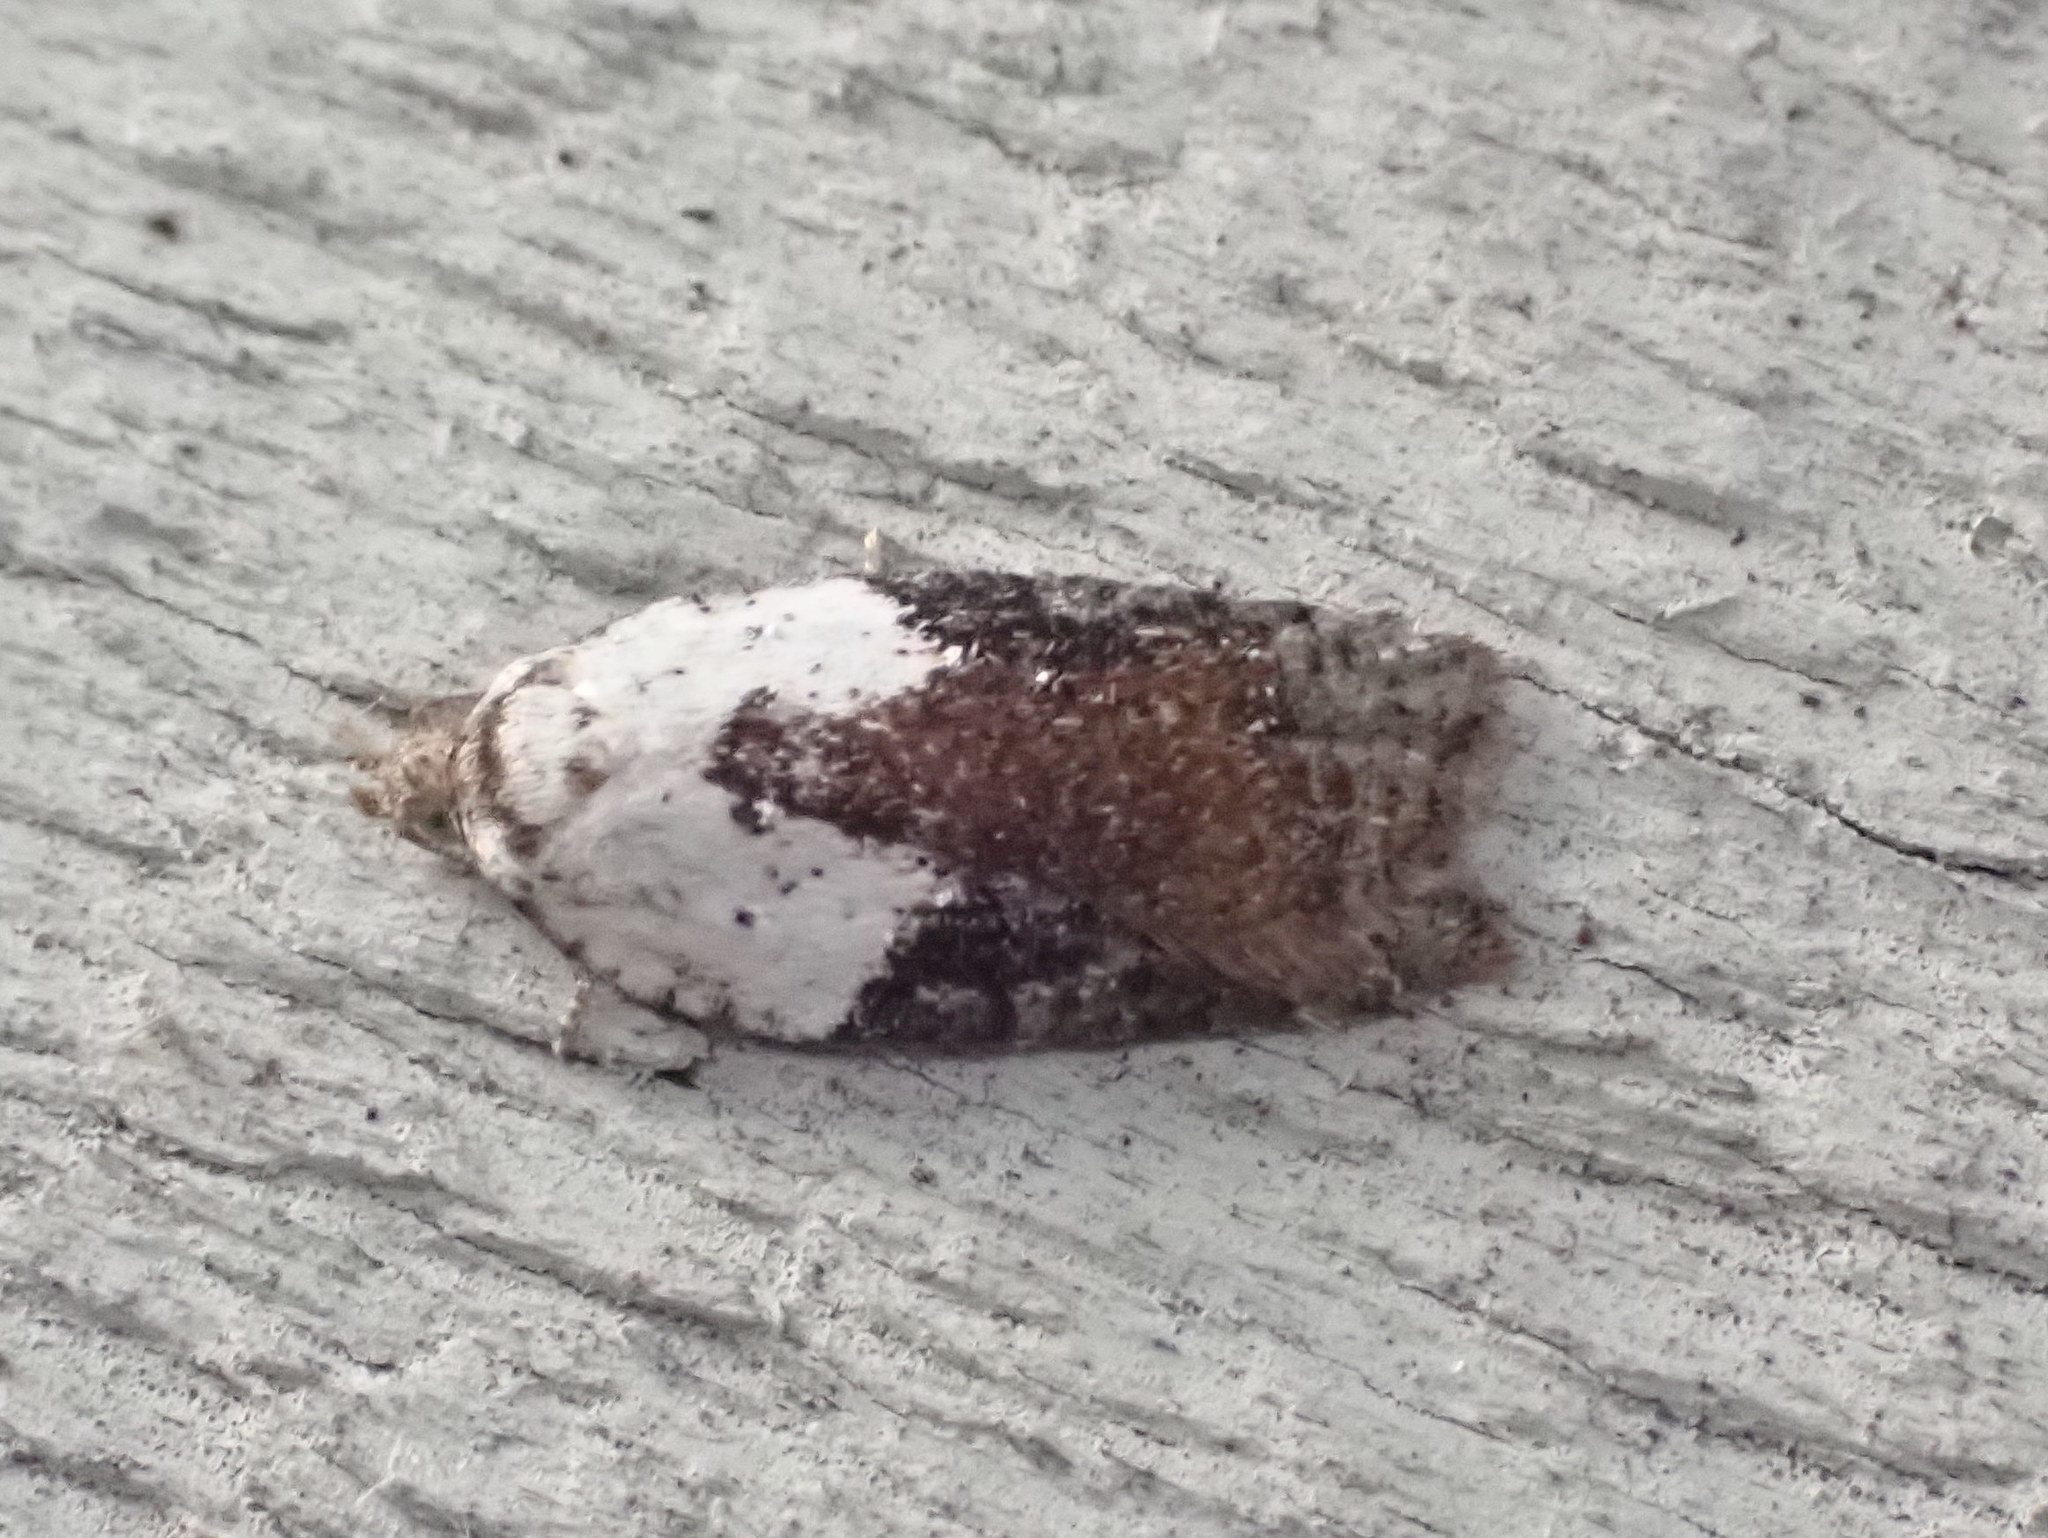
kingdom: Animalia
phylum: Arthropoda
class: Insecta
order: Lepidoptera
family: Tortricidae
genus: Acleris
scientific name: Acleris braunana
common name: Alder leafroller
